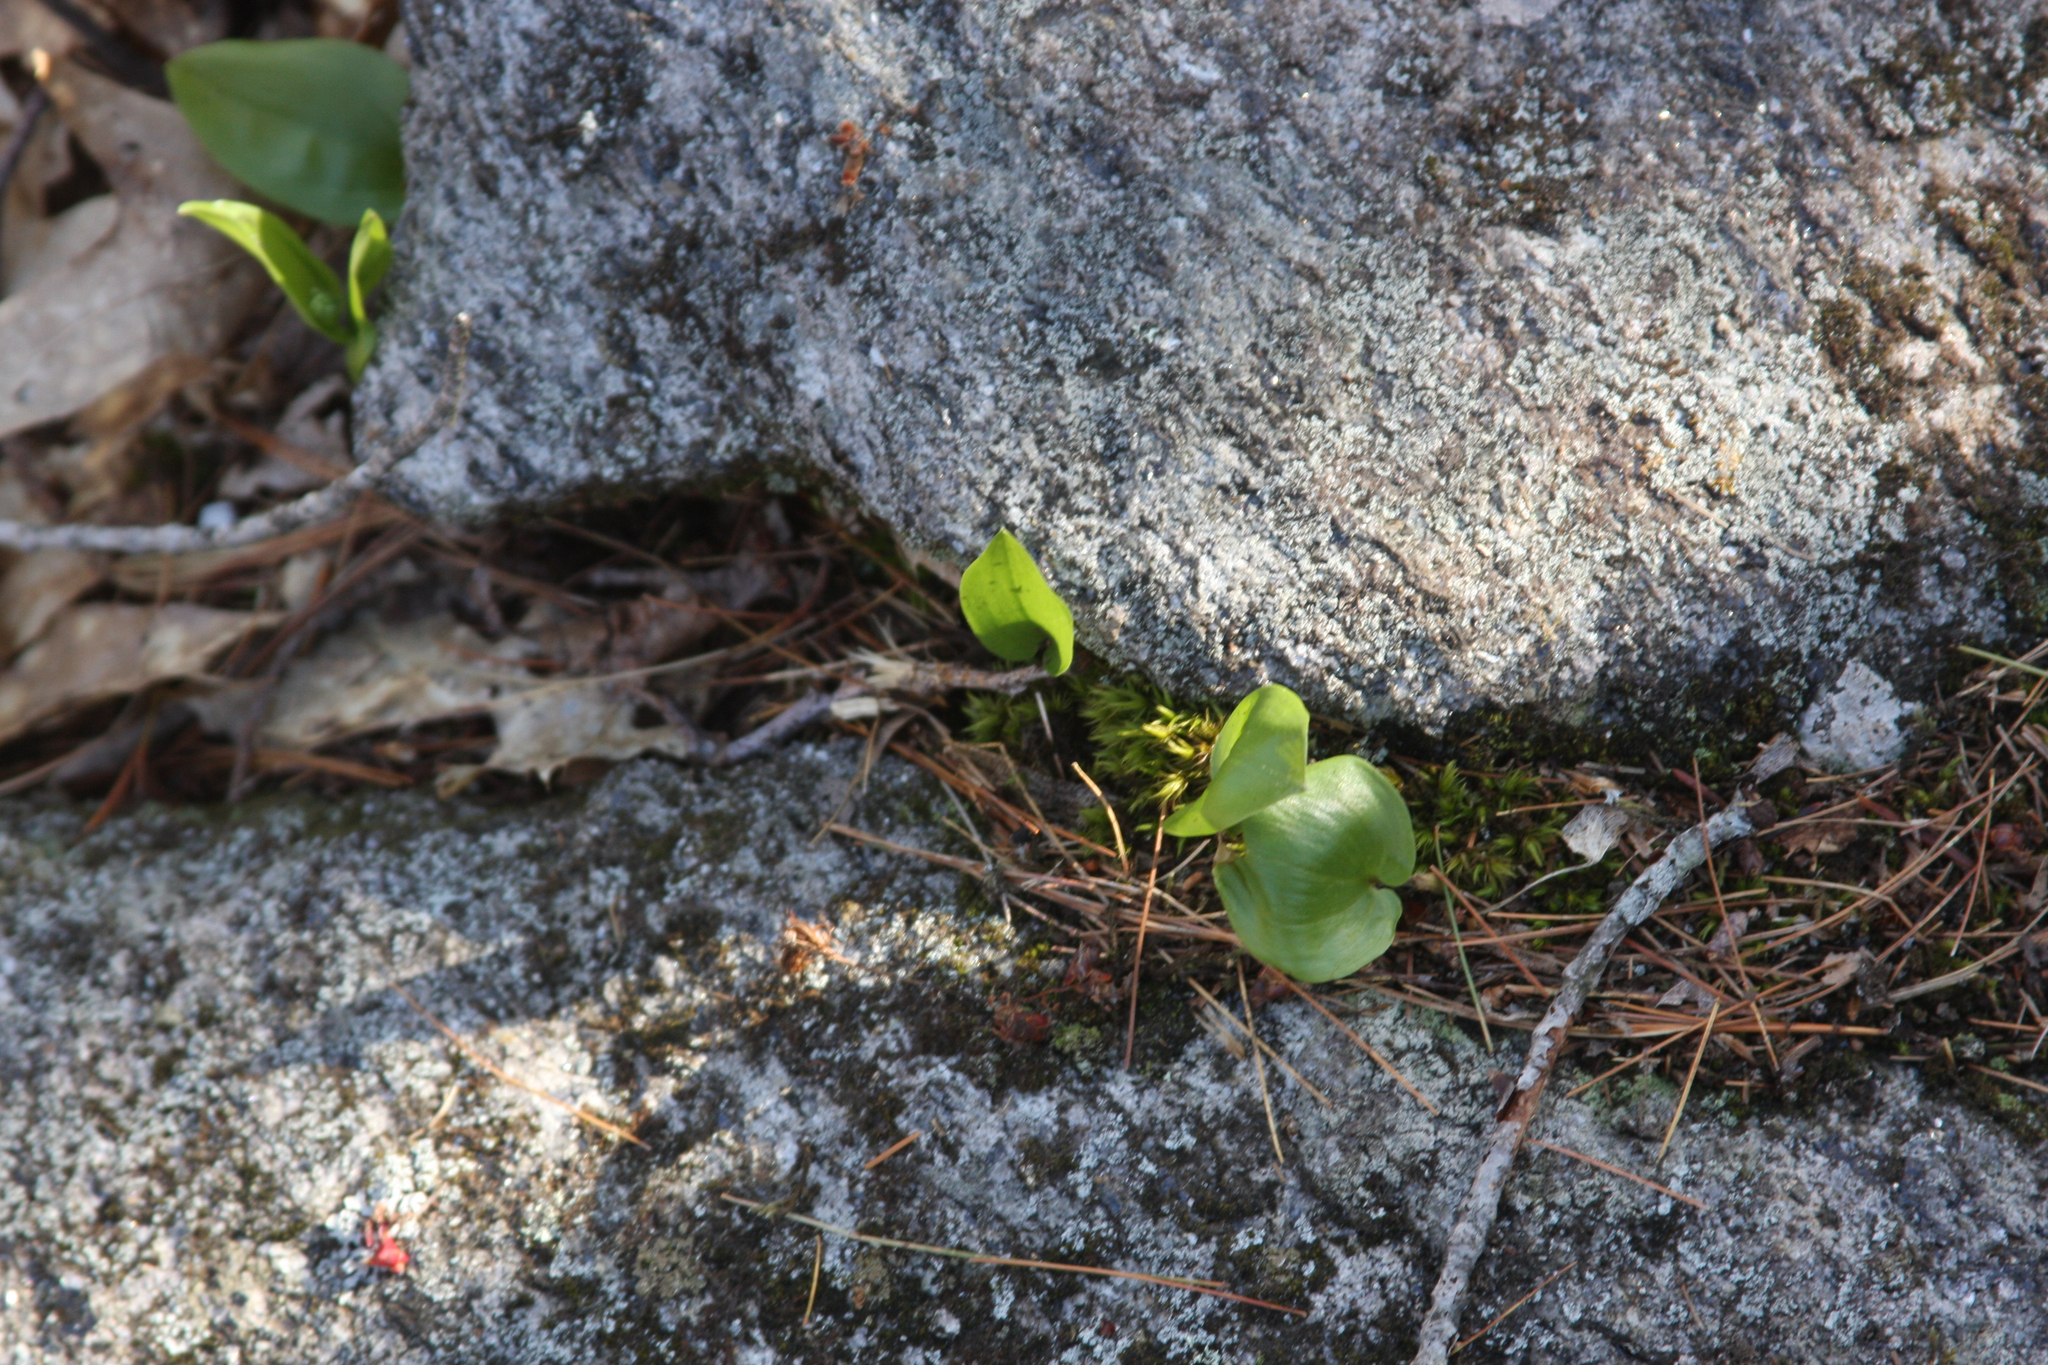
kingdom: Plantae
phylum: Tracheophyta
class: Liliopsida
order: Asparagales
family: Asparagaceae
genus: Maianthemum
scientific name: Maianthemum canadense
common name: False lily-of-the-valley
